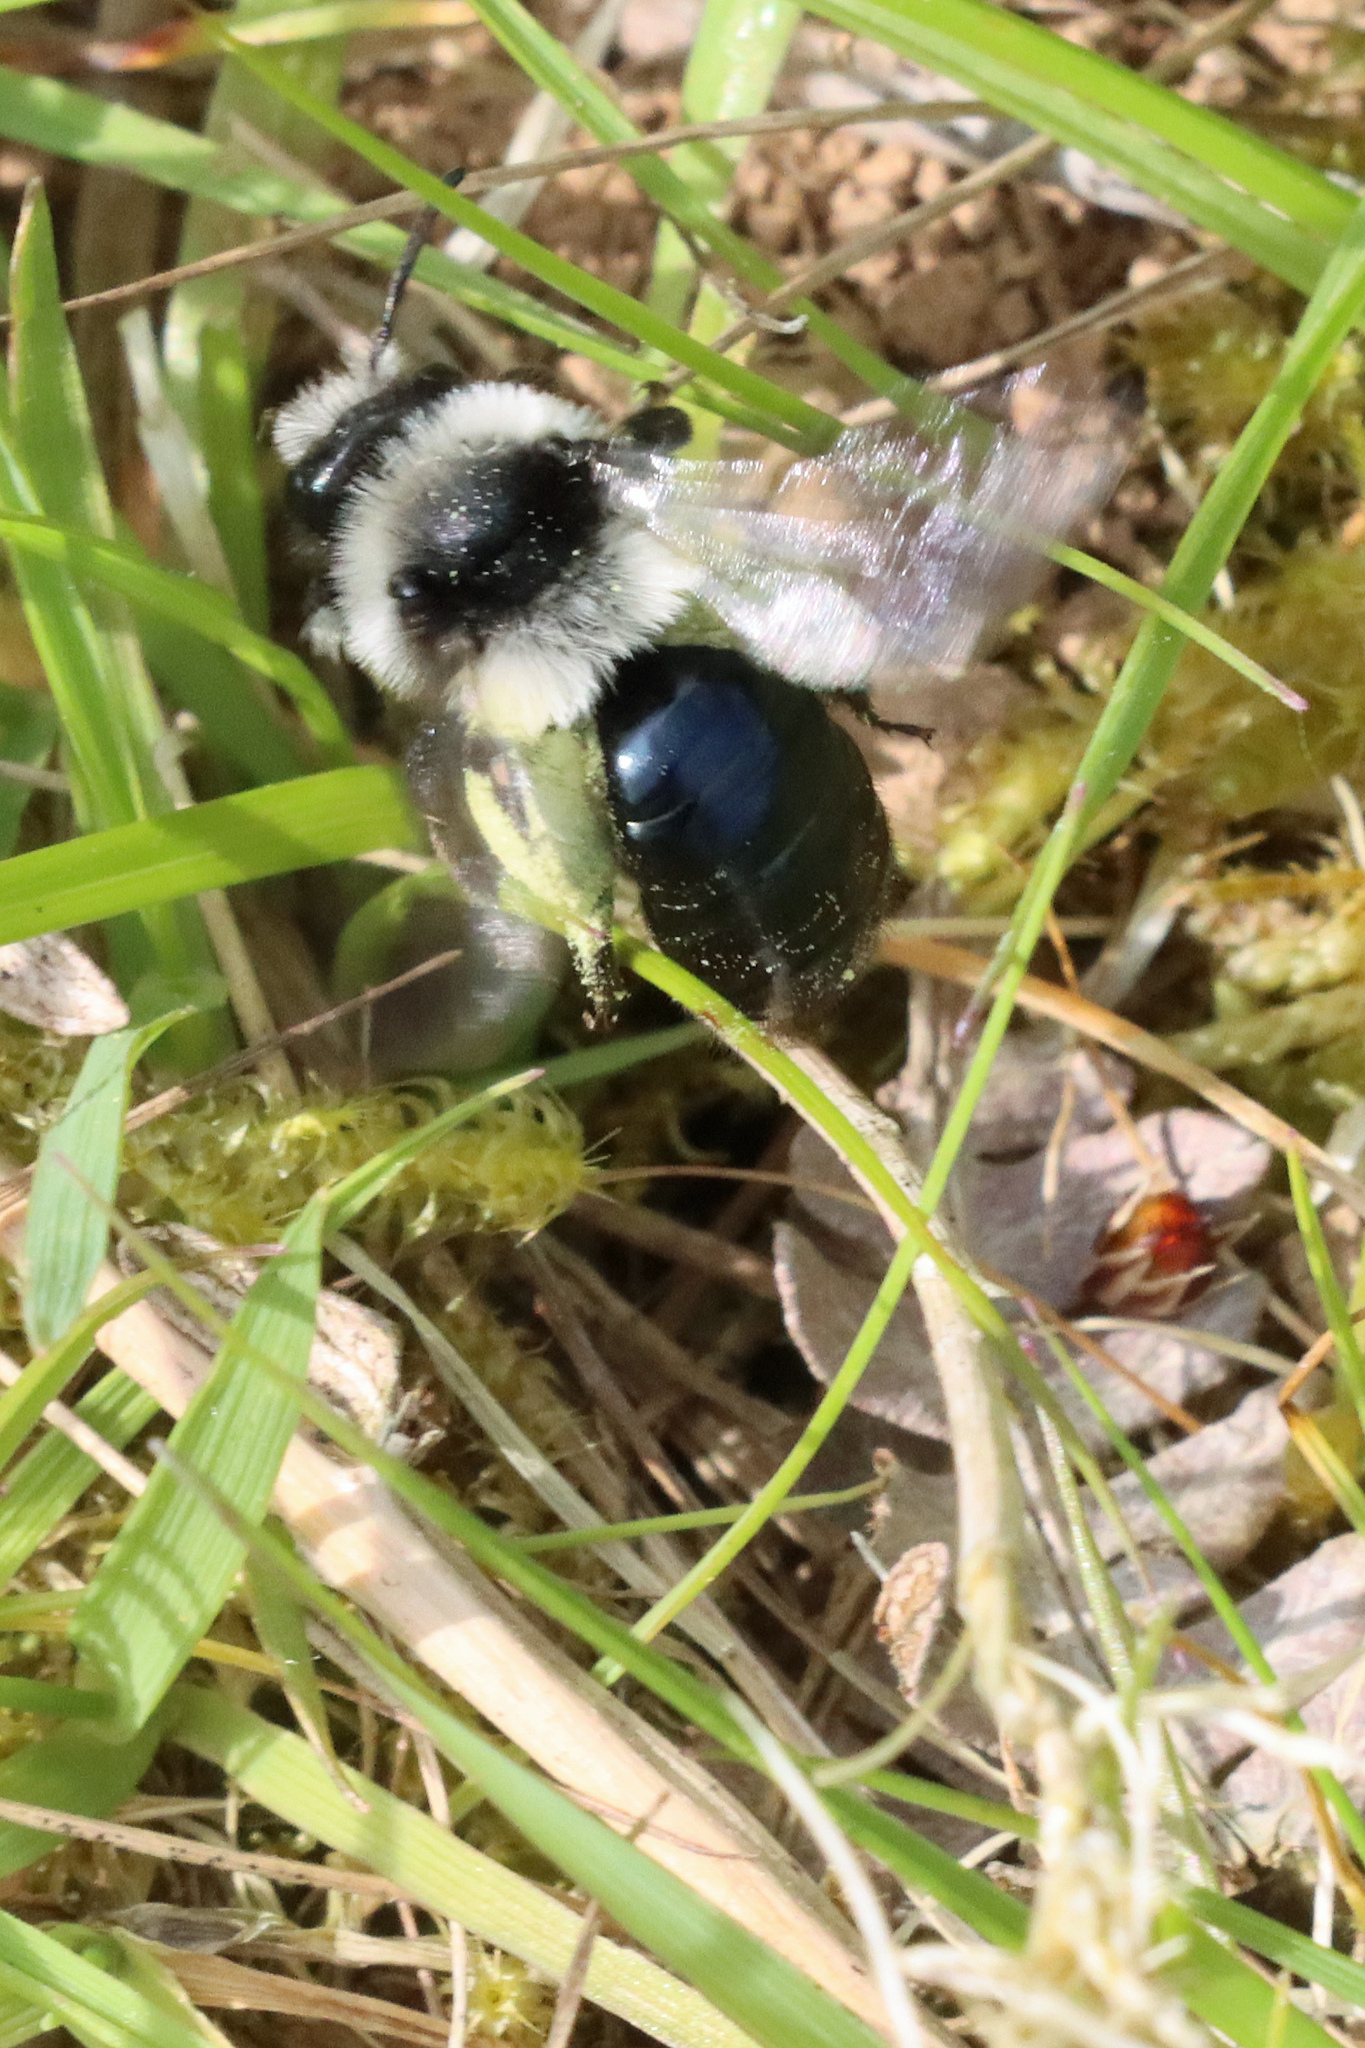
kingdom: Animalia
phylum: Arthropoda
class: Insecta
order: Hymenoptera
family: Andrenidae
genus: Andrena
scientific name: Andrena cineraria
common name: Ashy mining bee
